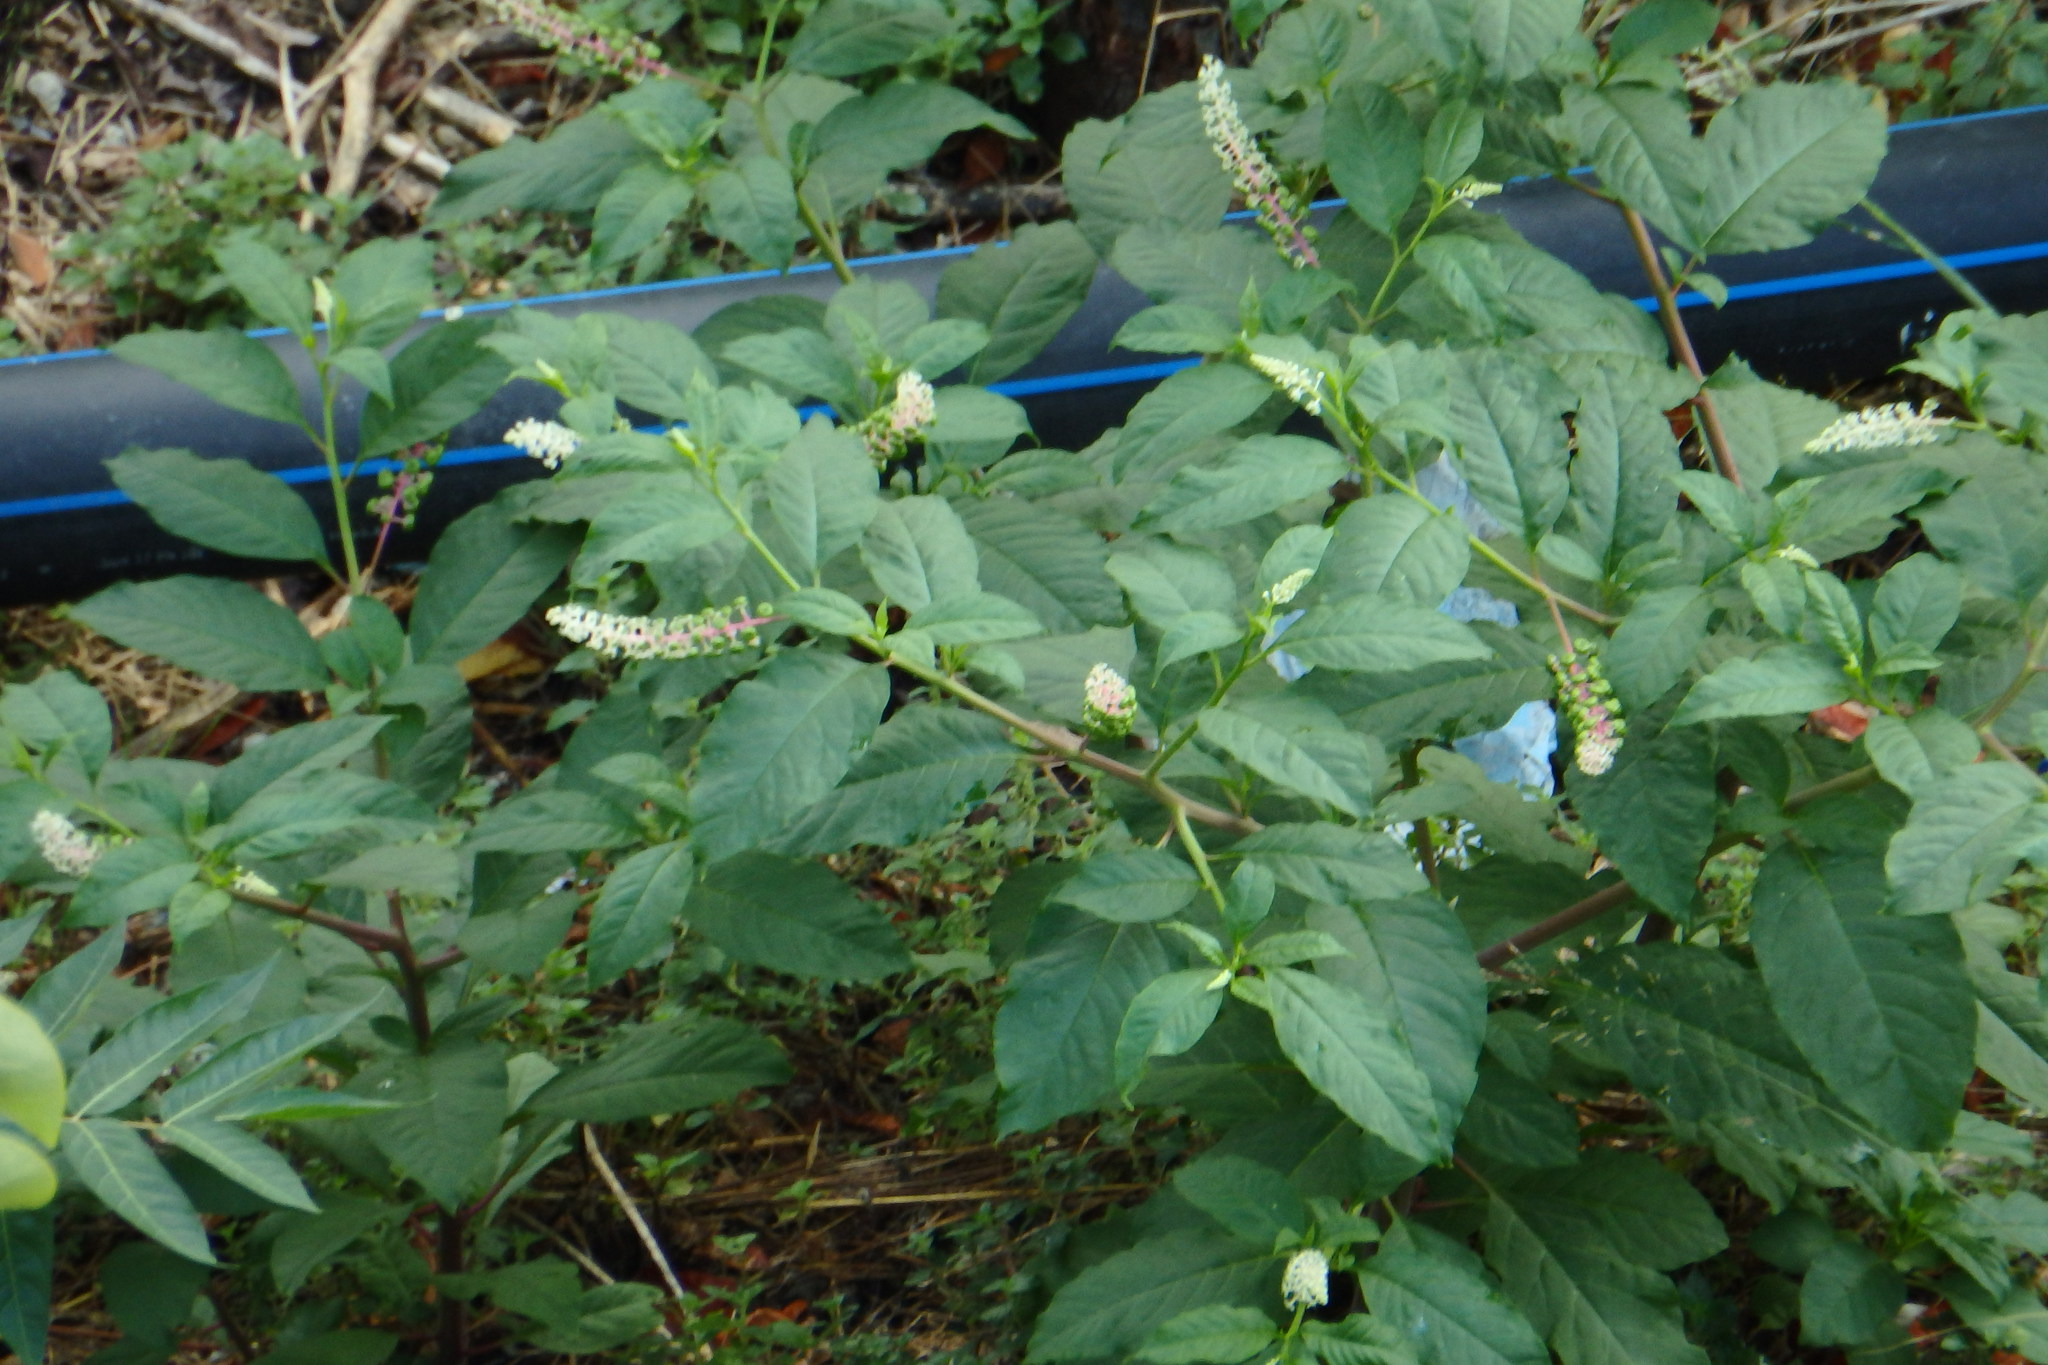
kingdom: Plantae
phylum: Tracheophyta
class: Magnoliopsida
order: Caryophyllales
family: Phytolaccaceae
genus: Phytolacca
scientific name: Phytolacca americana
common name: American pokeweed
